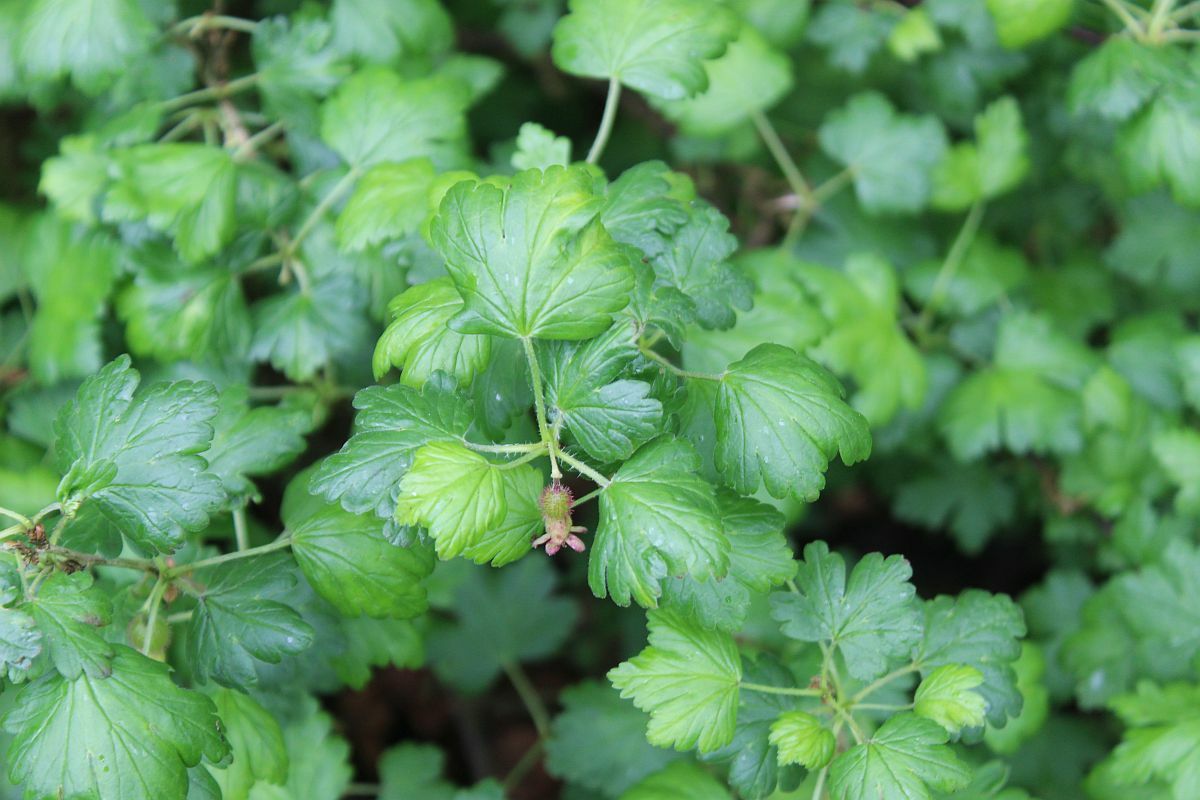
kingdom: Plantae
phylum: Tracheophyta
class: Magnoliopsida
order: Saxifragales
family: Grossulariaceae
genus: Ribes
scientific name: Ribes uva-crispa
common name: Gooseberry
